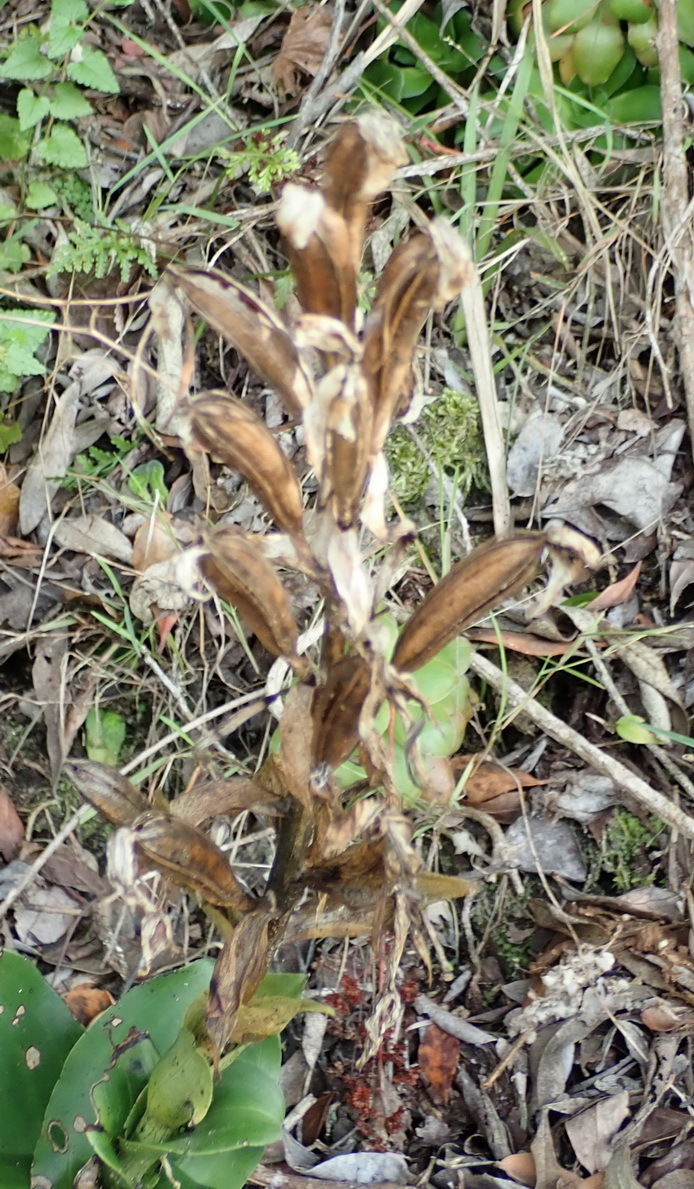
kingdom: Plantae
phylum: Tracheophyta
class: Liliopsida
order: Asparagales
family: Orchidaceae
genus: Bonatea
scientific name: Bonatea speciosa
